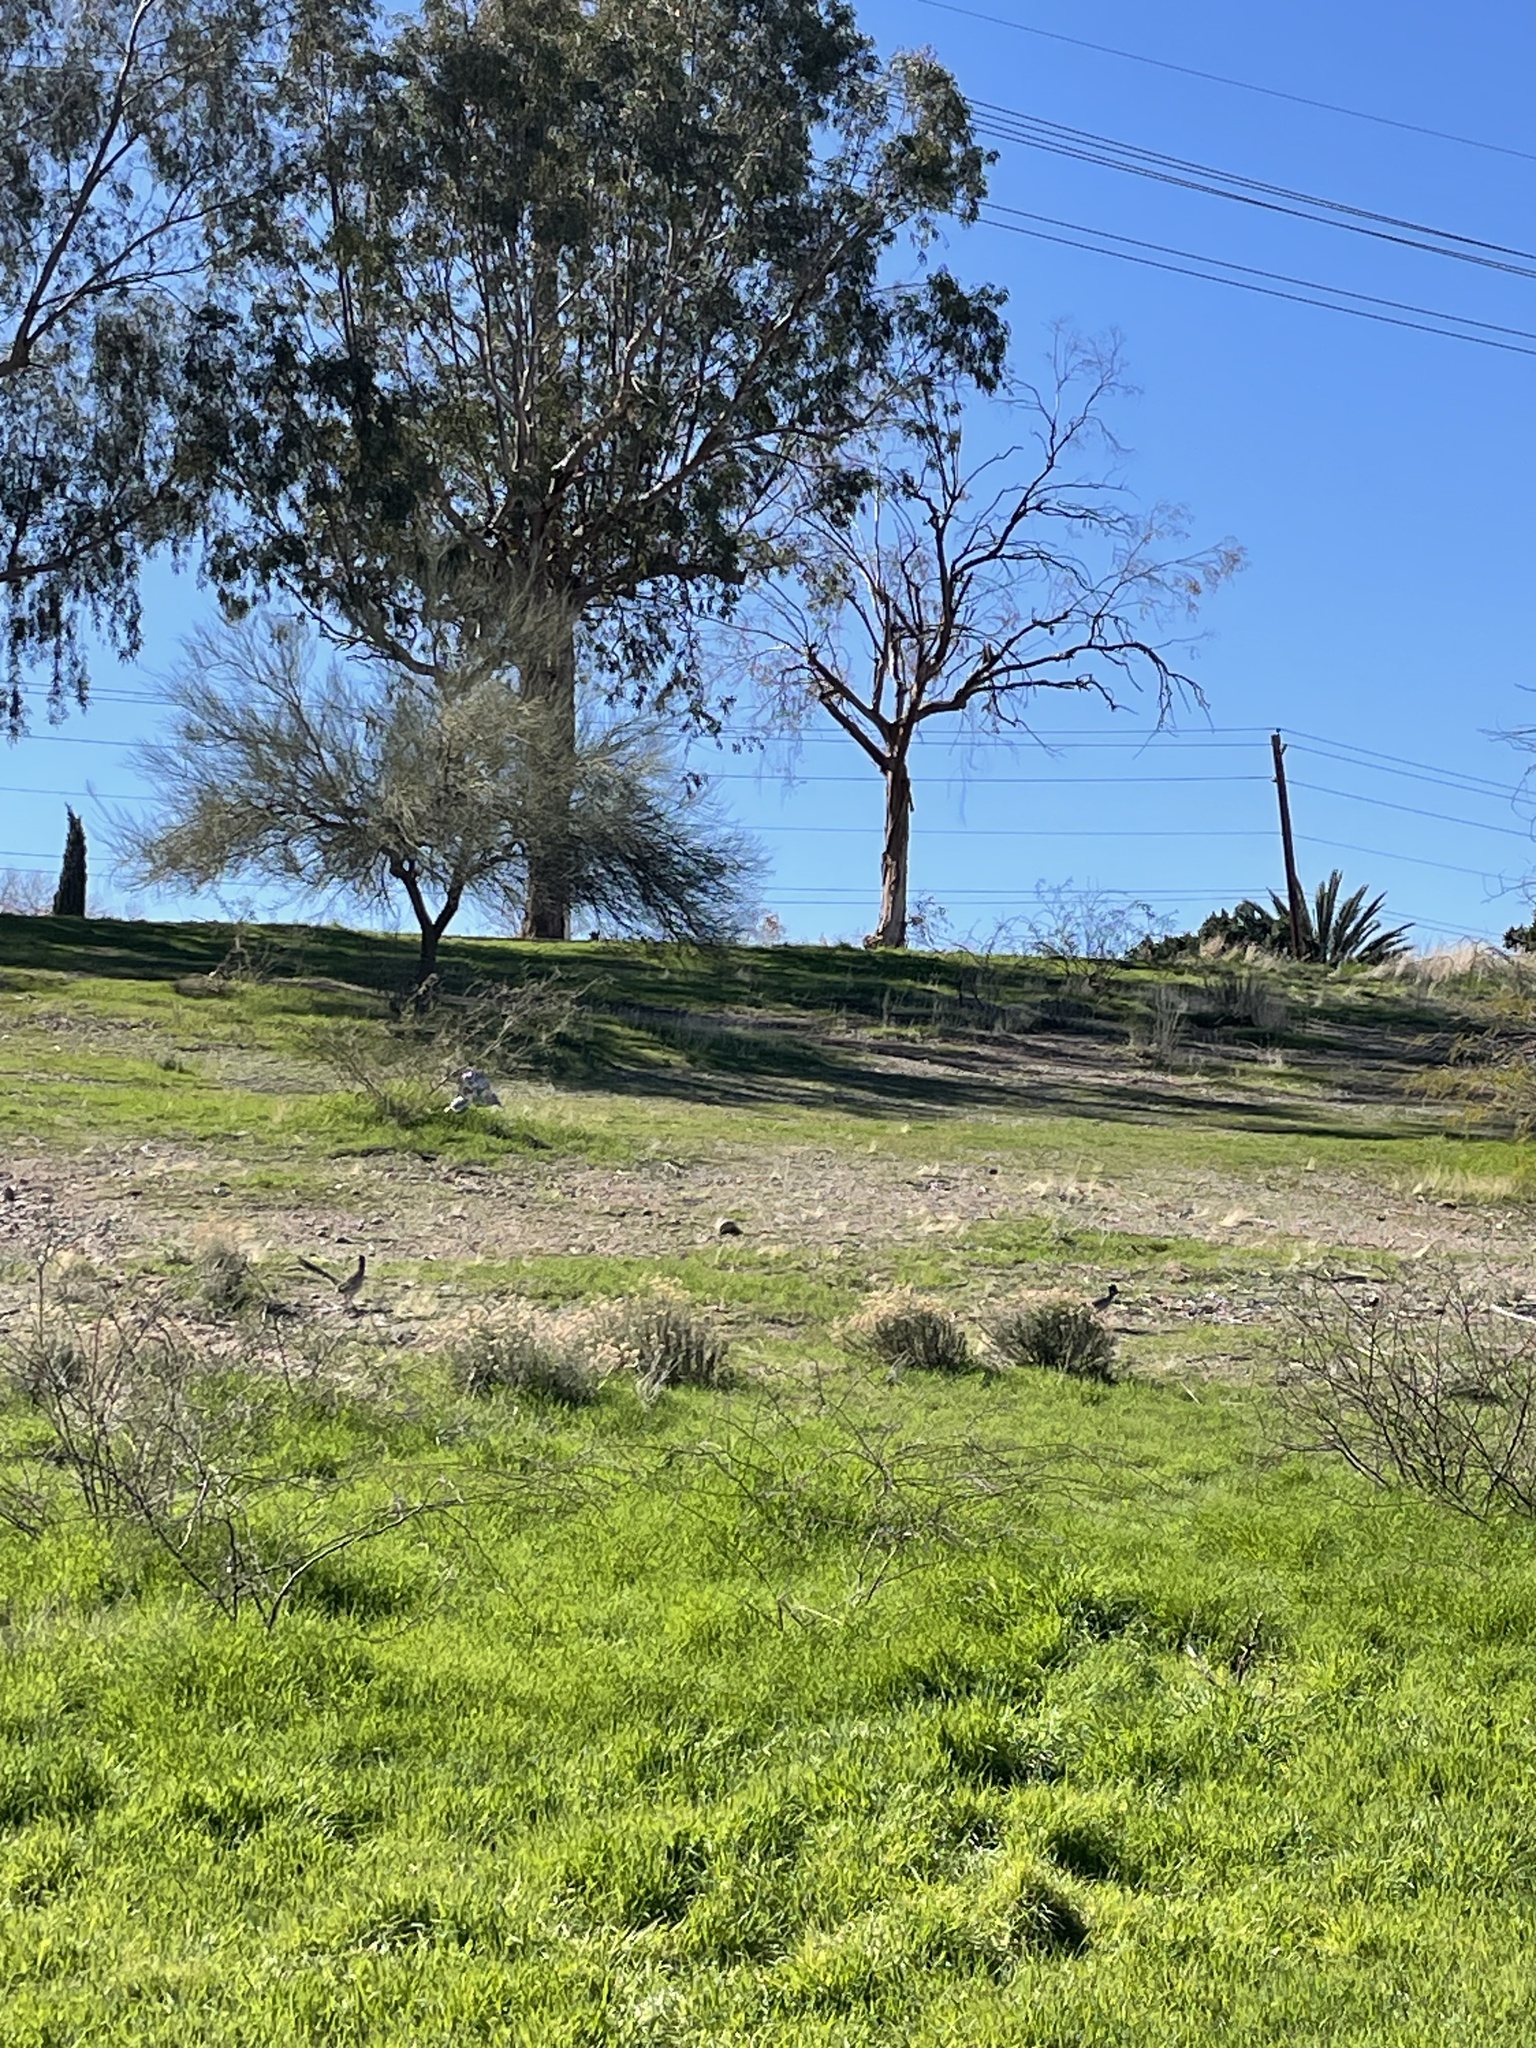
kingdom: Animalia
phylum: Chordata
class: Aves
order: Cuculiformes
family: Cuculidae
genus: Geococcyx
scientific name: Geococcyx californianus
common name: Greater roadrunner
